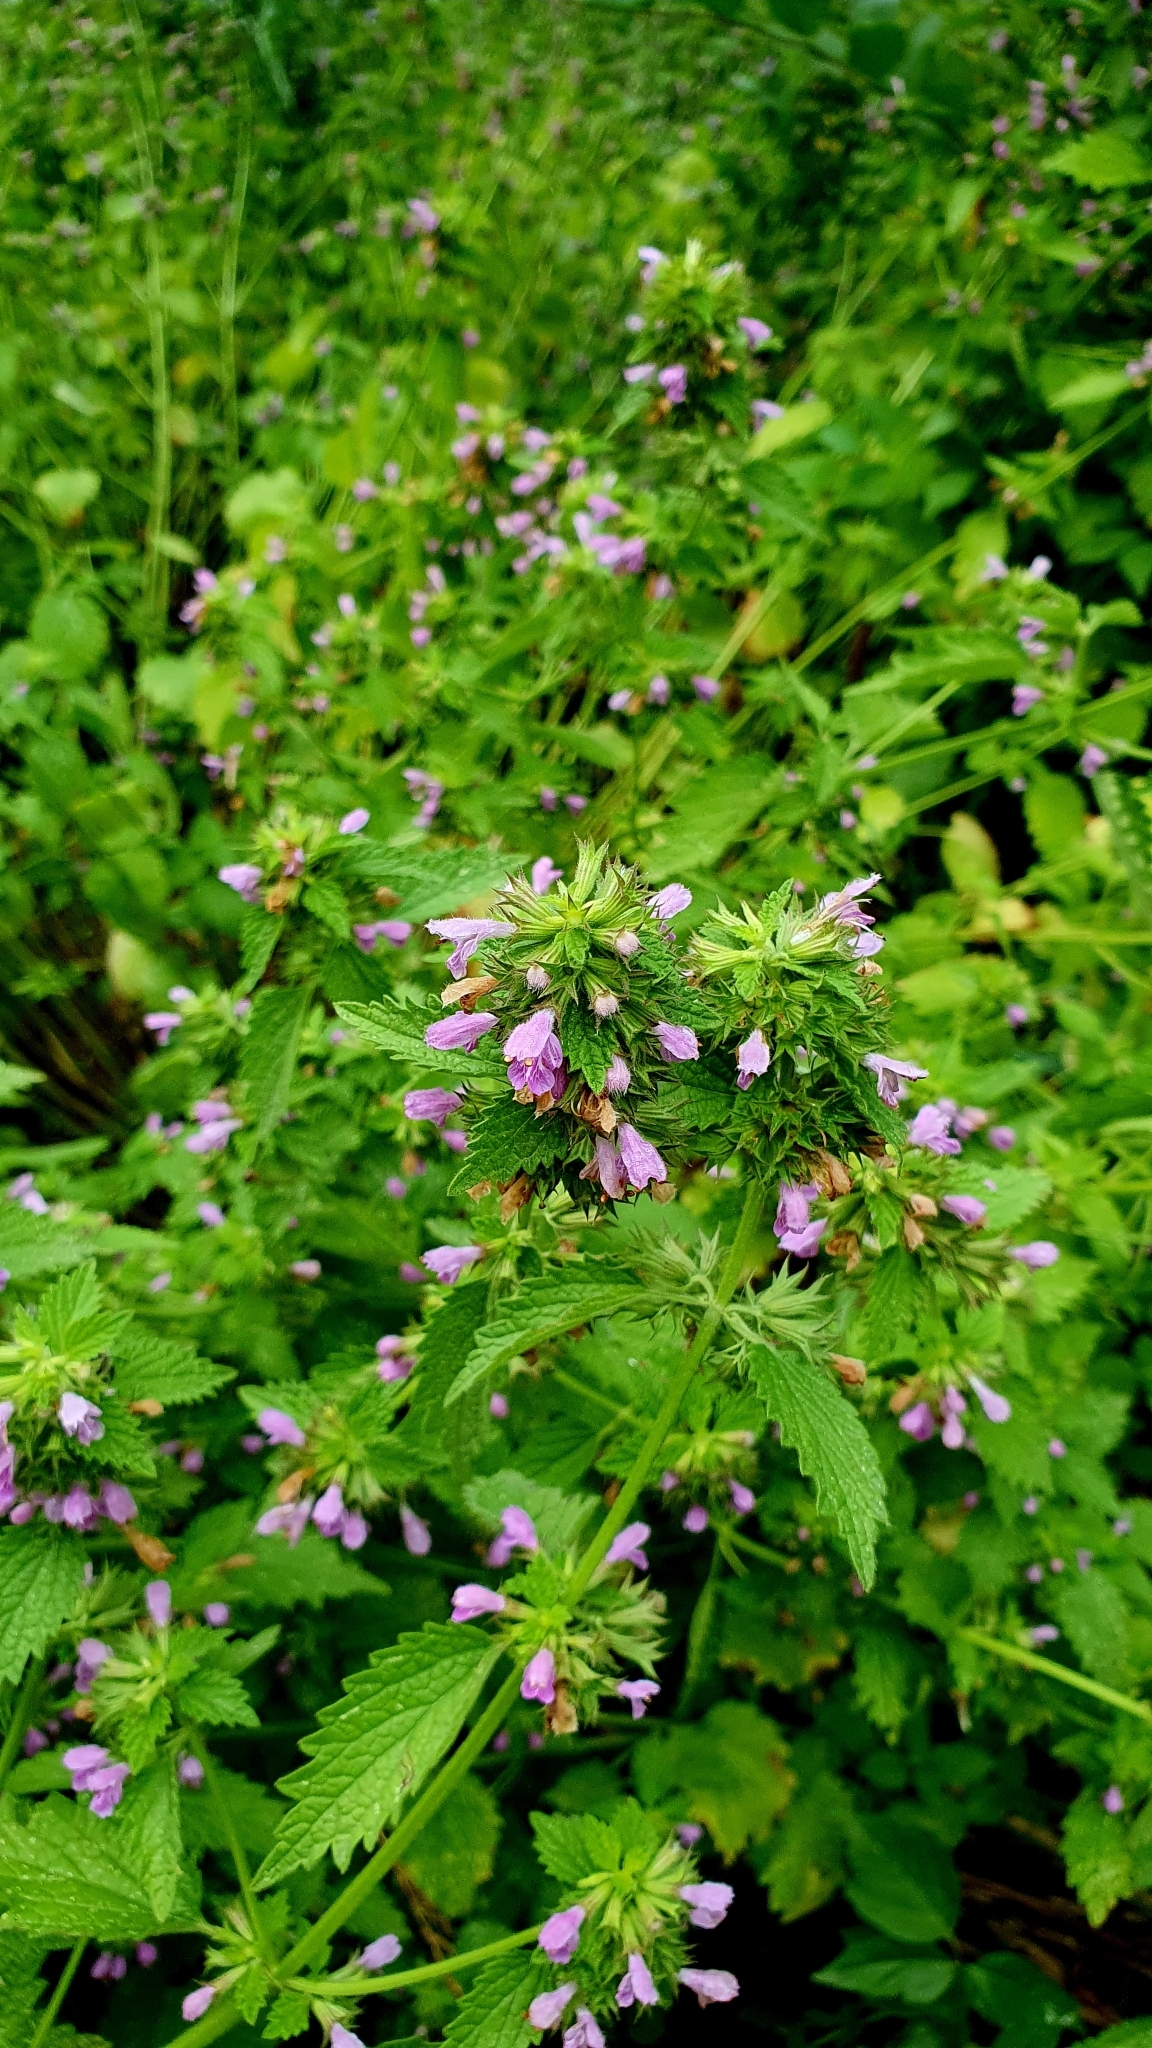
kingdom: Plantae
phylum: Tracheophyta
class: Magnoliopsida
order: Lamiales
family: Lamiaceae
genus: Ballota
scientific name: Ballota nigra
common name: Black horehound
